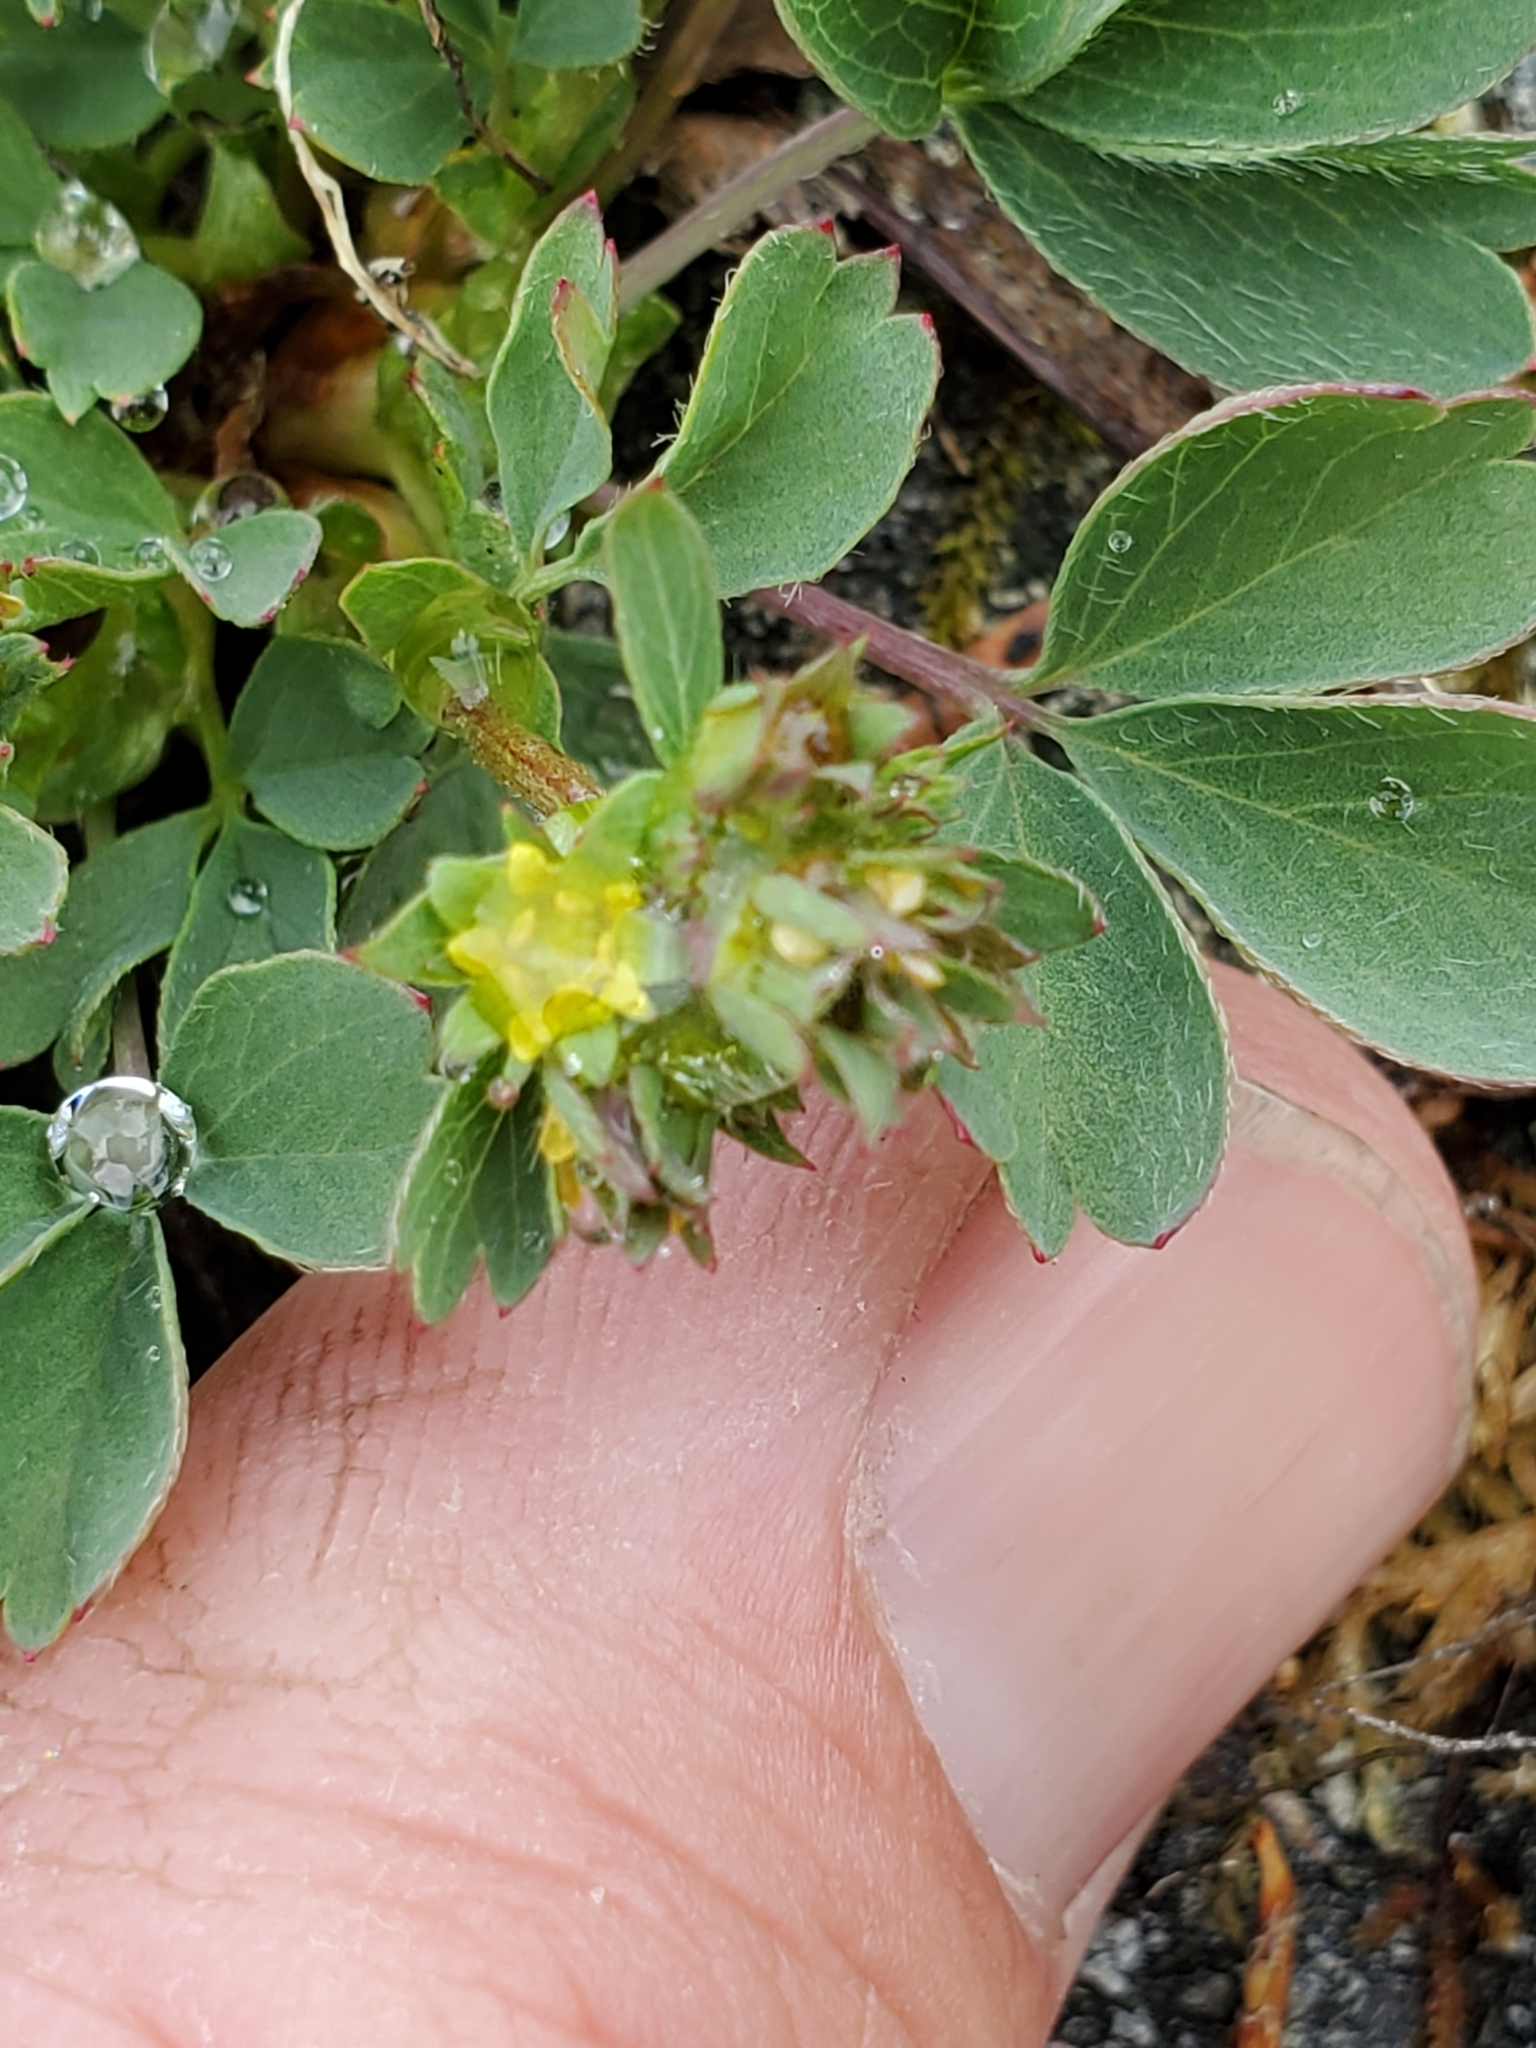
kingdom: Plantae
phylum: Tracheophyta
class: Magnoliopsida
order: Rosales
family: Rosaceae
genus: Sibbaldia
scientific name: Sibbaldia procumbens
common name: Creeping sibbaldia
